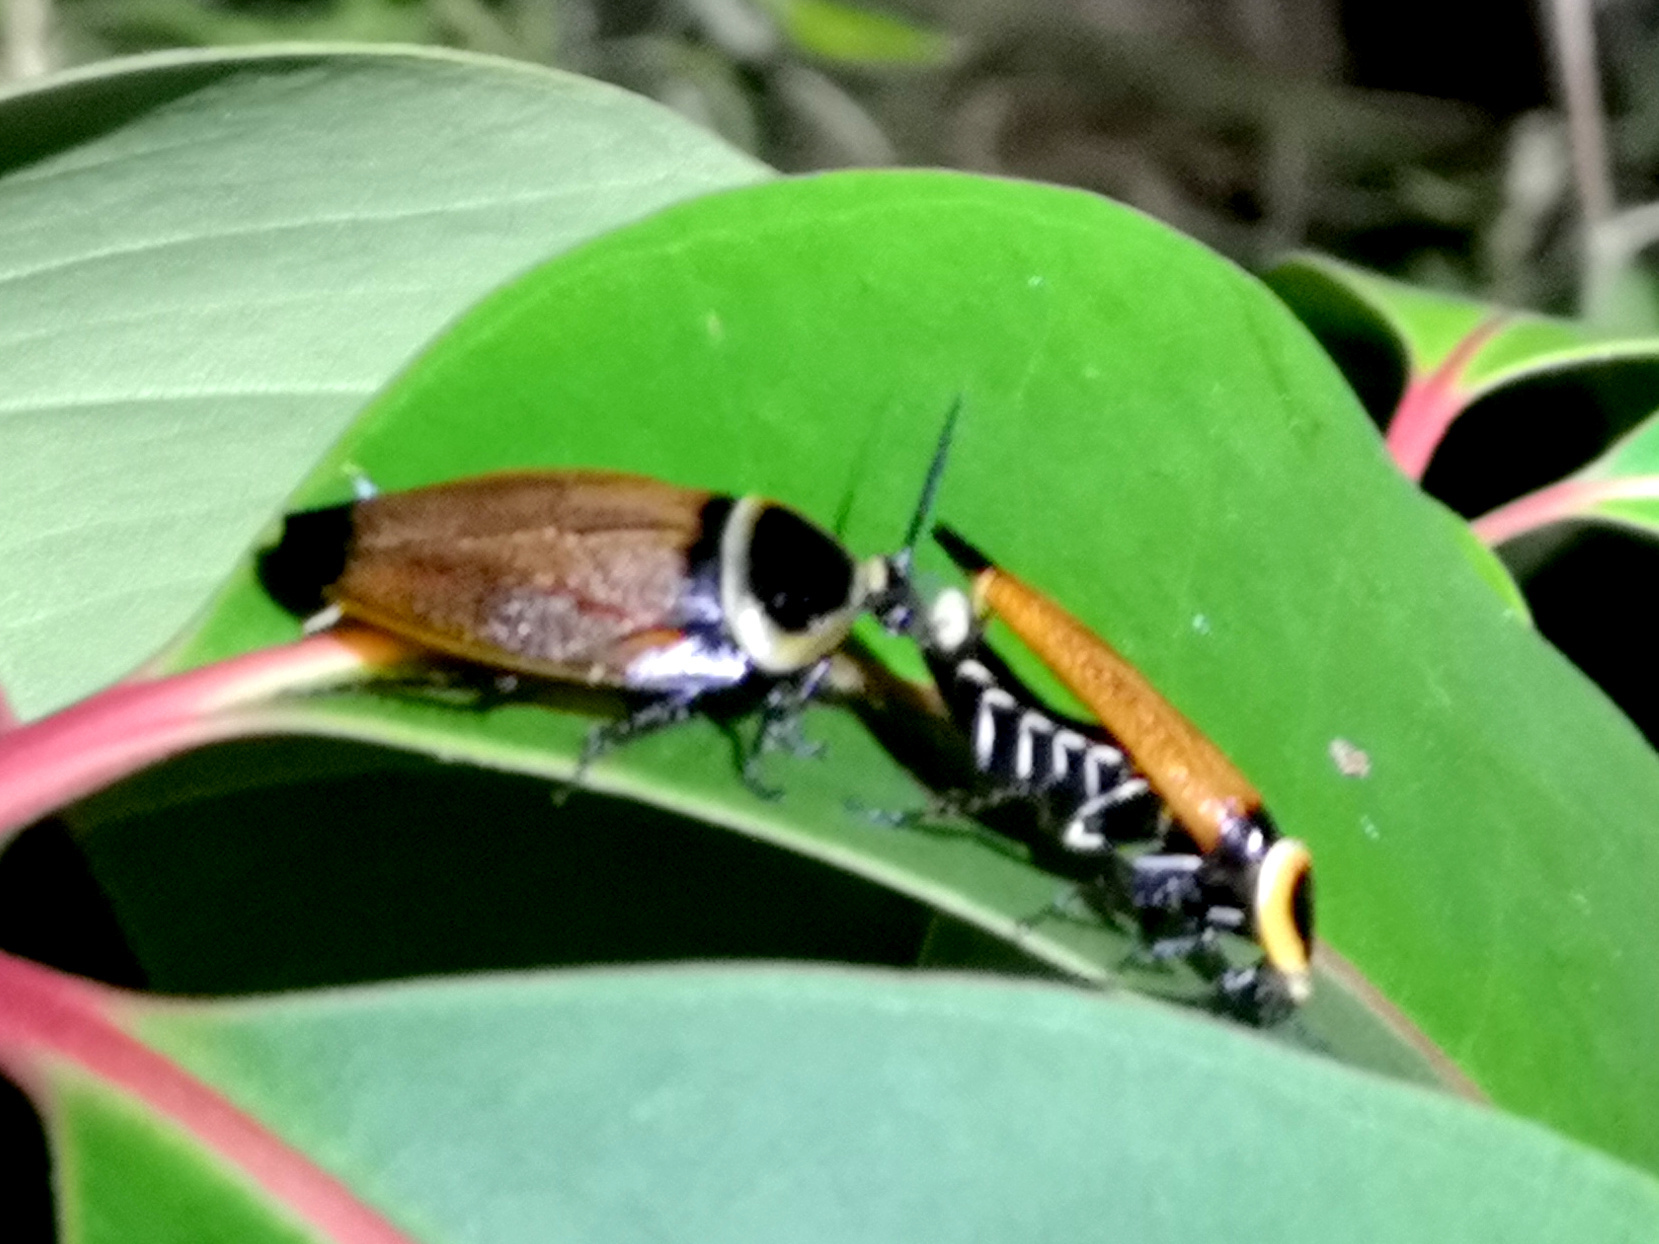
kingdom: Animalia
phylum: Arthropoda
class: Insecta
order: Blattodea
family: Ectobiidae
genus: Ellipsidion
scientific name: Ellipsidion australe
